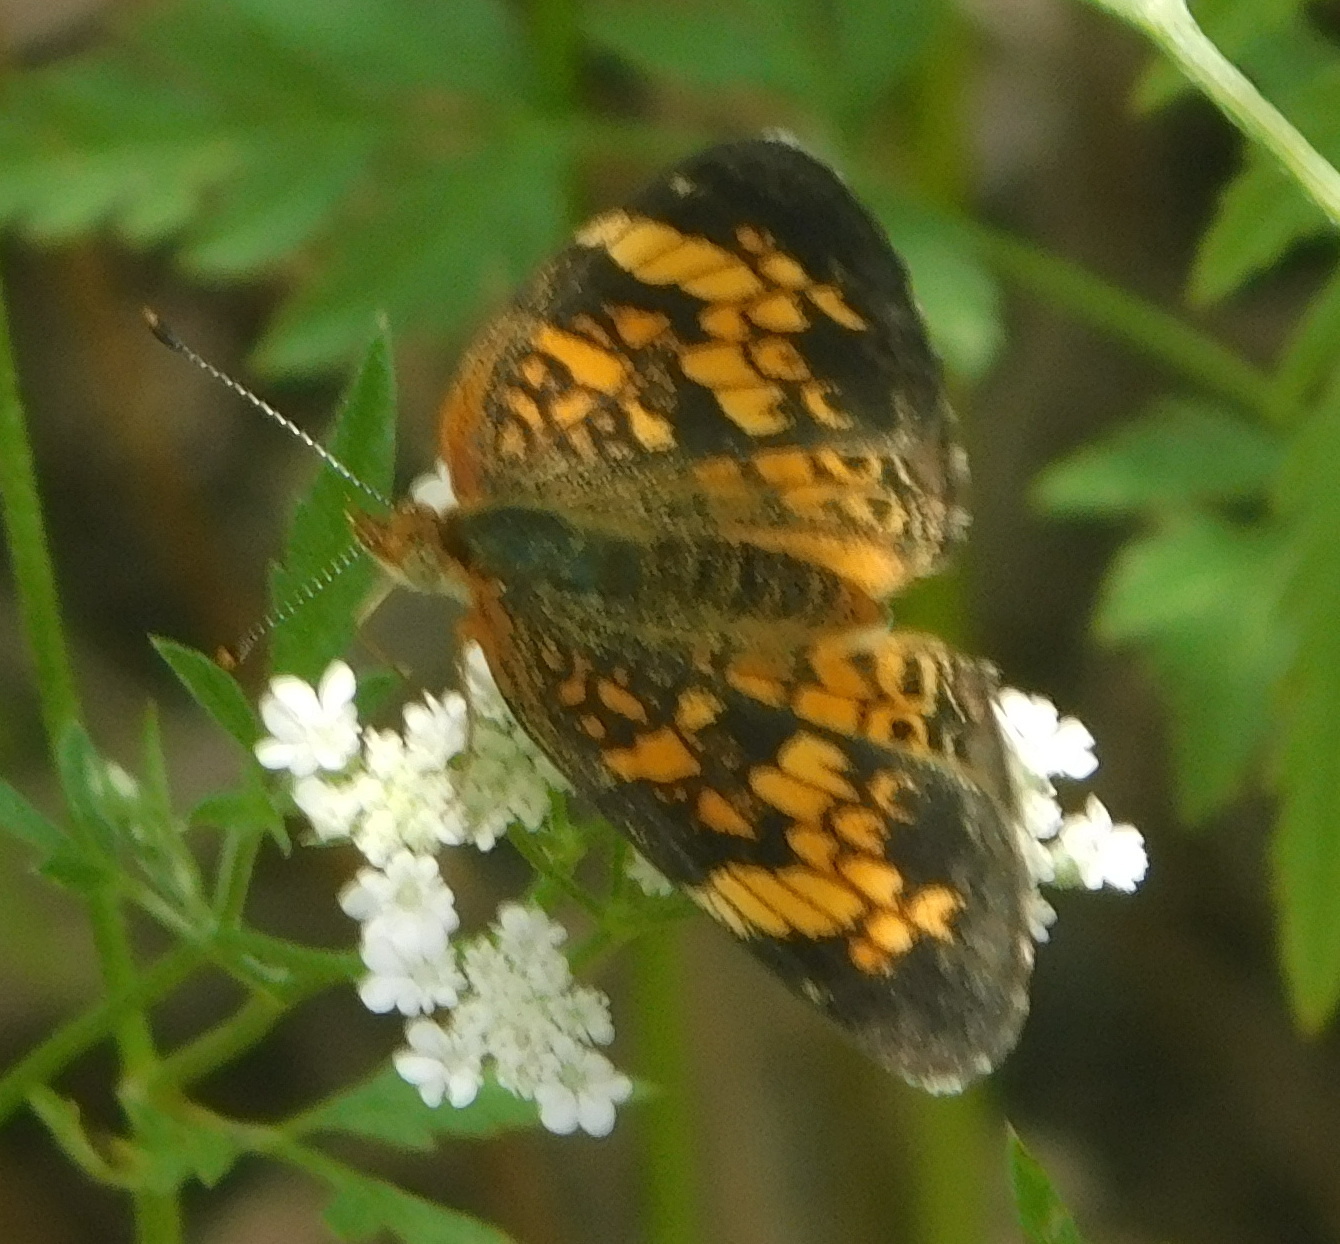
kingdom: Animalia
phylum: Arthropoda
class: Insecta
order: Lepidoptera
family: Nymphalidae
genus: Phyciodes
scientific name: Phyciodes tharos
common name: Pearl crescent
